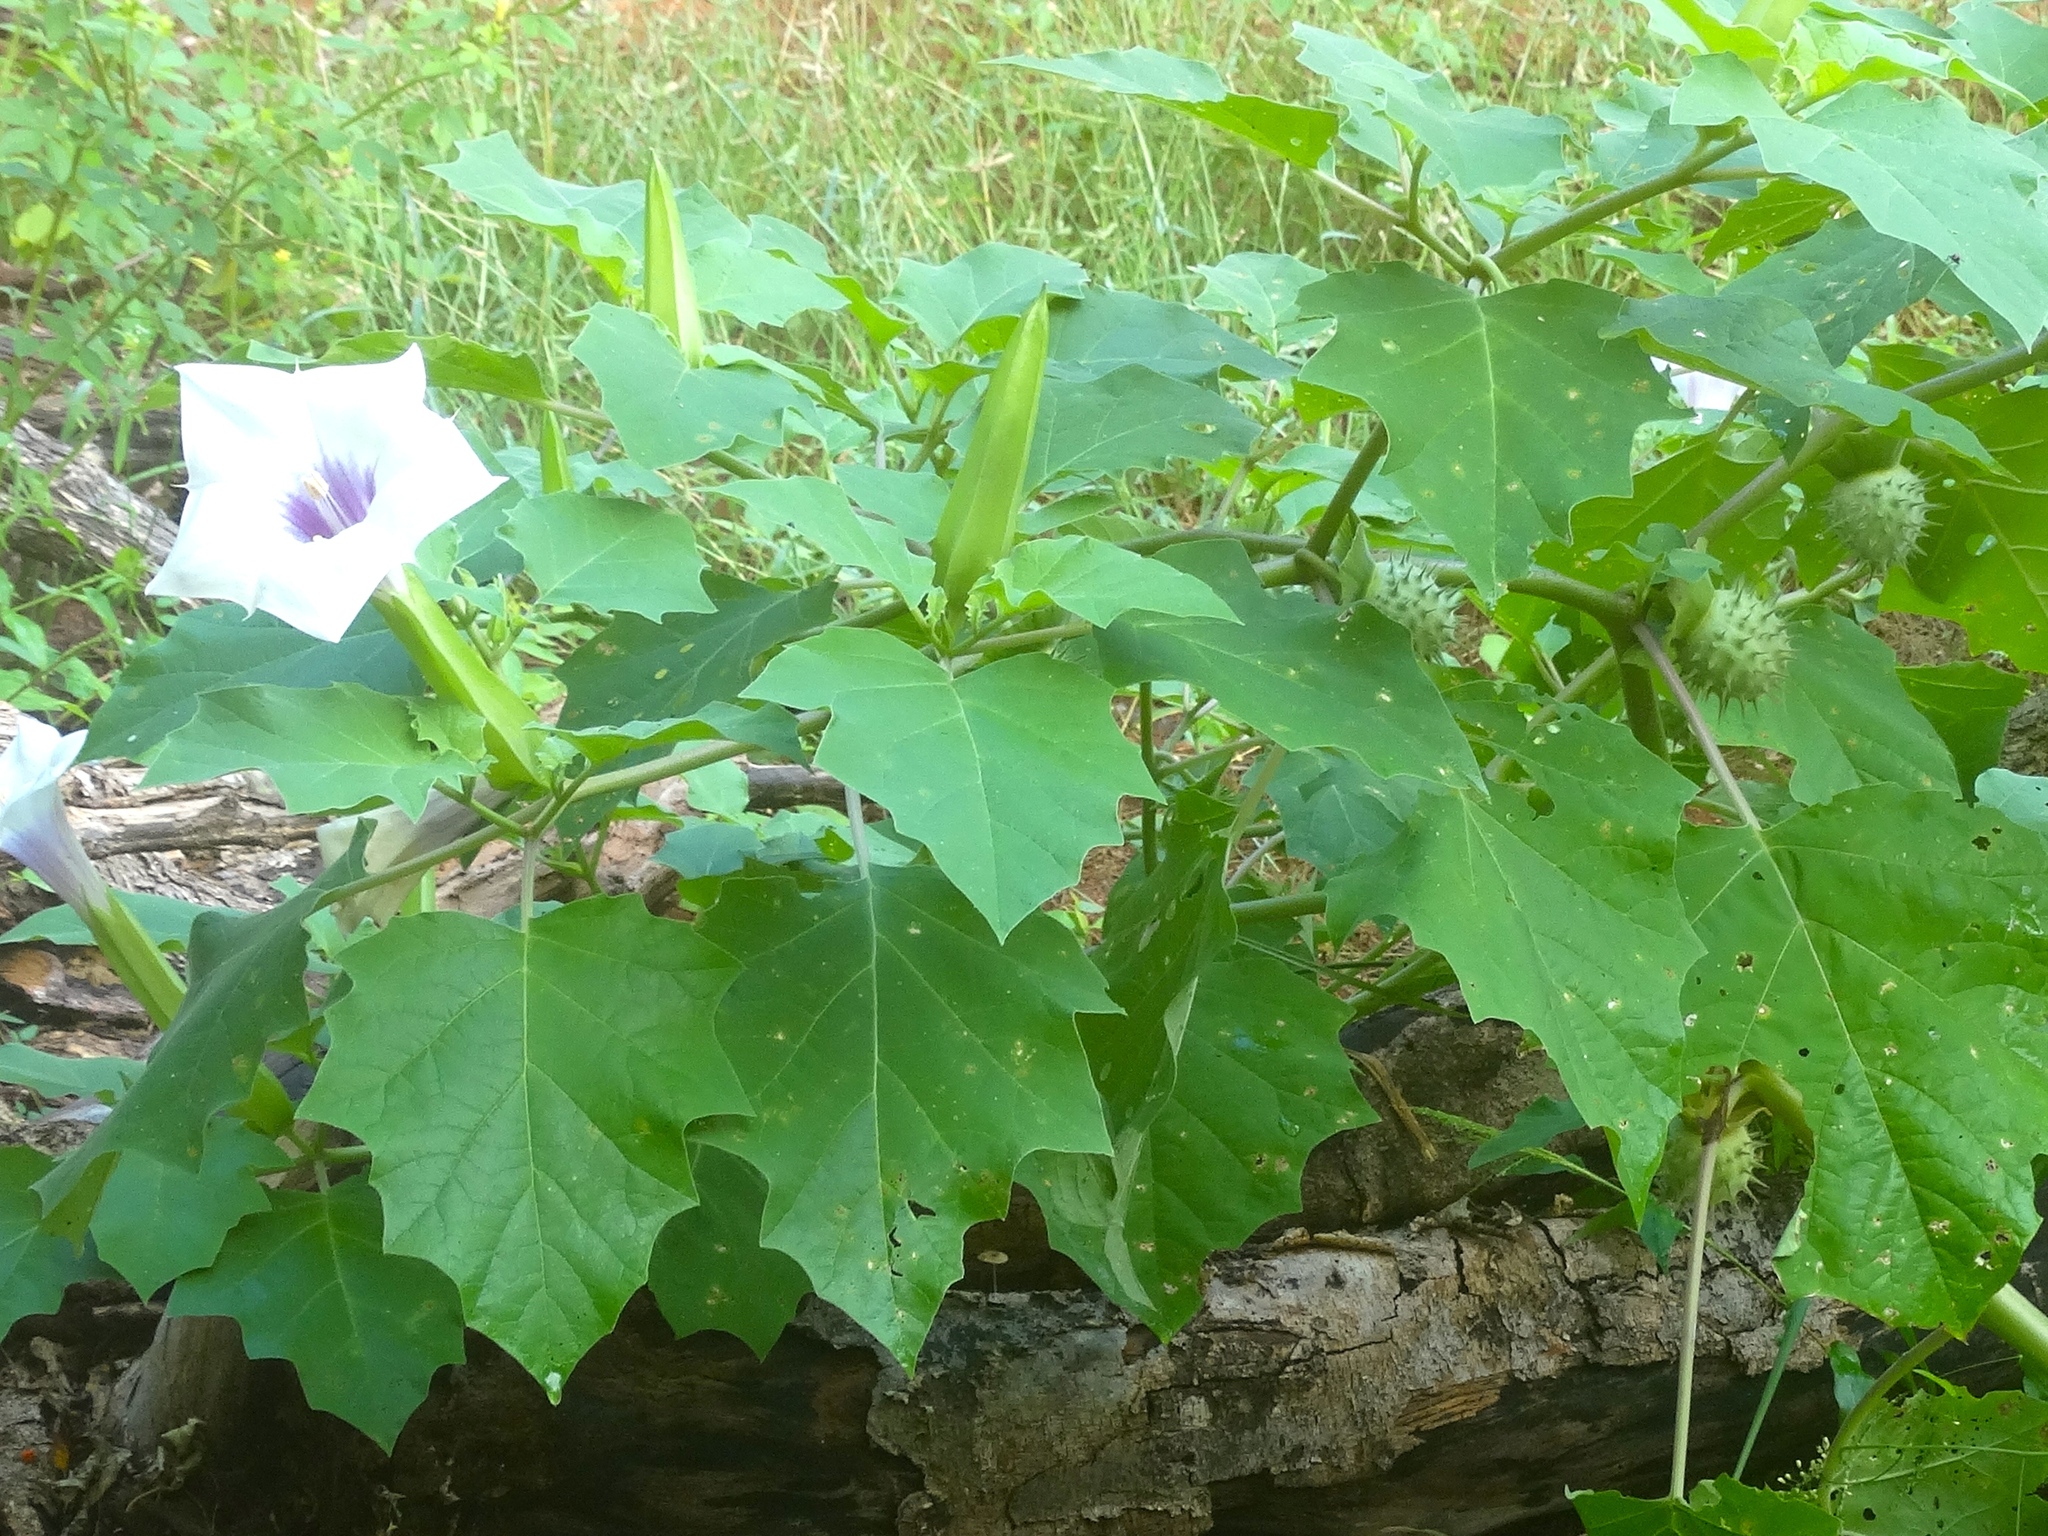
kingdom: Plantae
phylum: Tracheophyta
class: Magnoliopsida
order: Solanales
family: Solanaceae
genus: Datura
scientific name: Datura discolor
